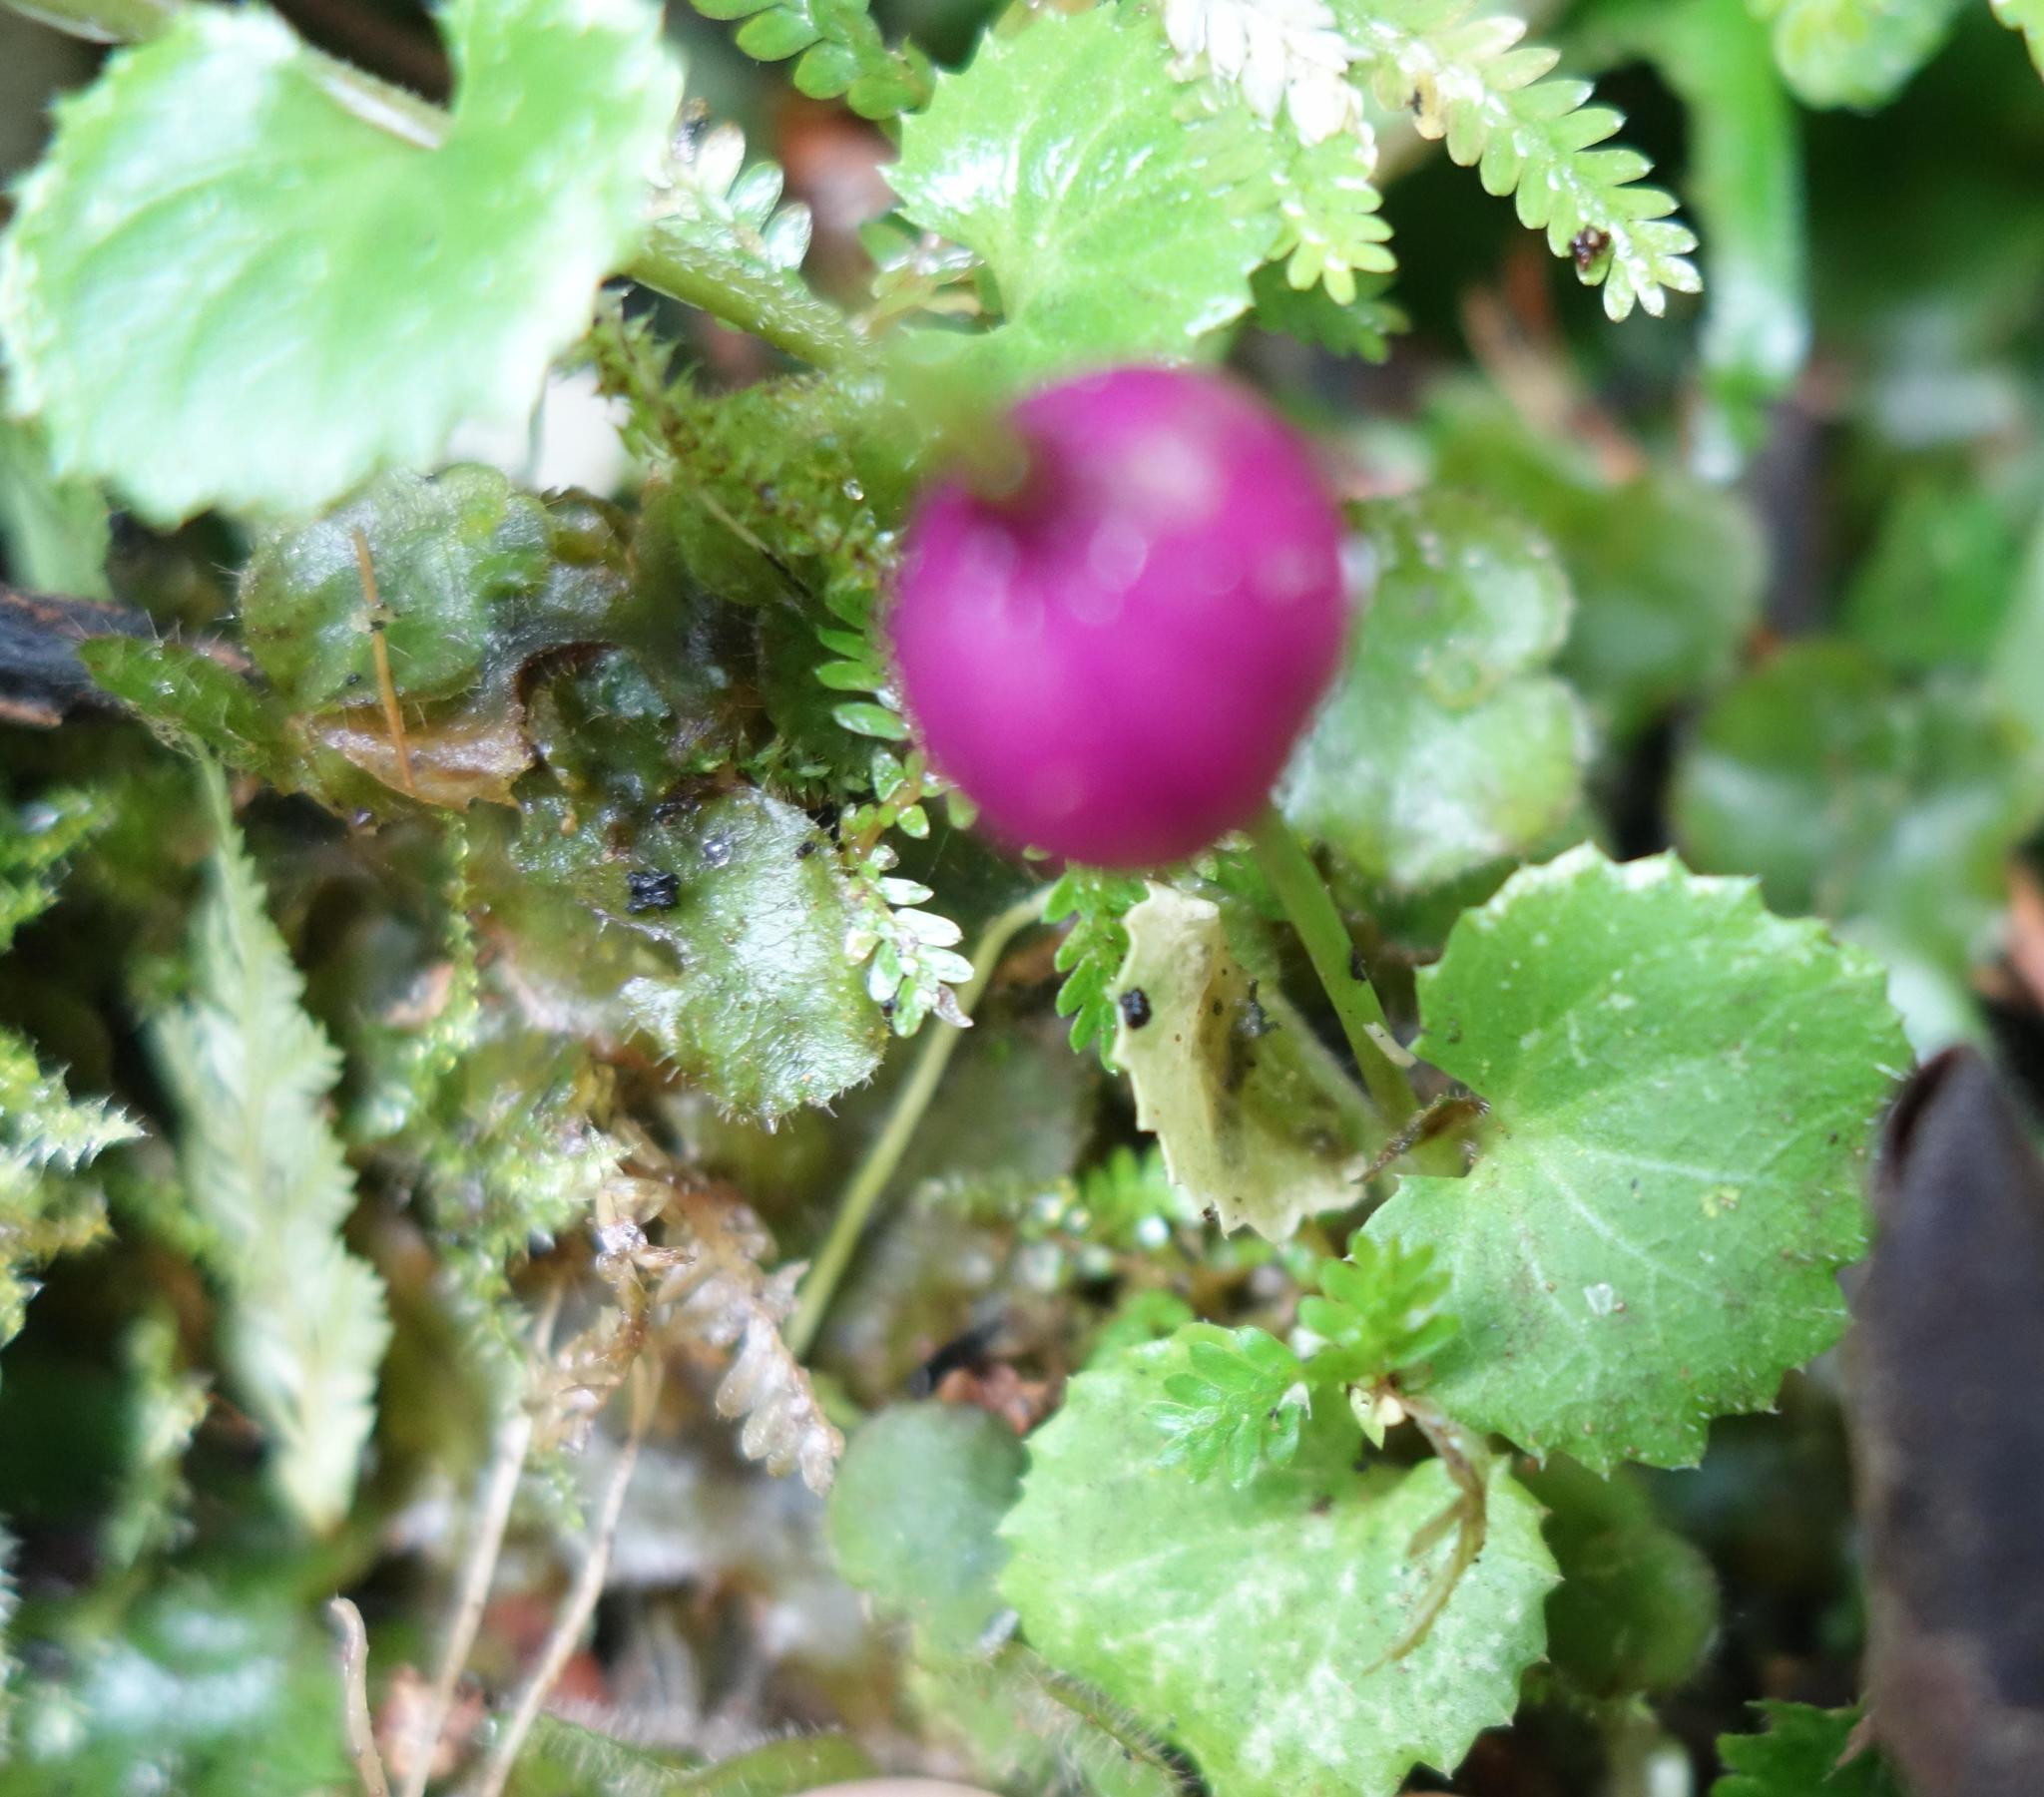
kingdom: Plantae
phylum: Tracheophyta
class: Magnoliopsida
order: Asterales
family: Campanulaceae
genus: Lobelia
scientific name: Lobelia nummularia
